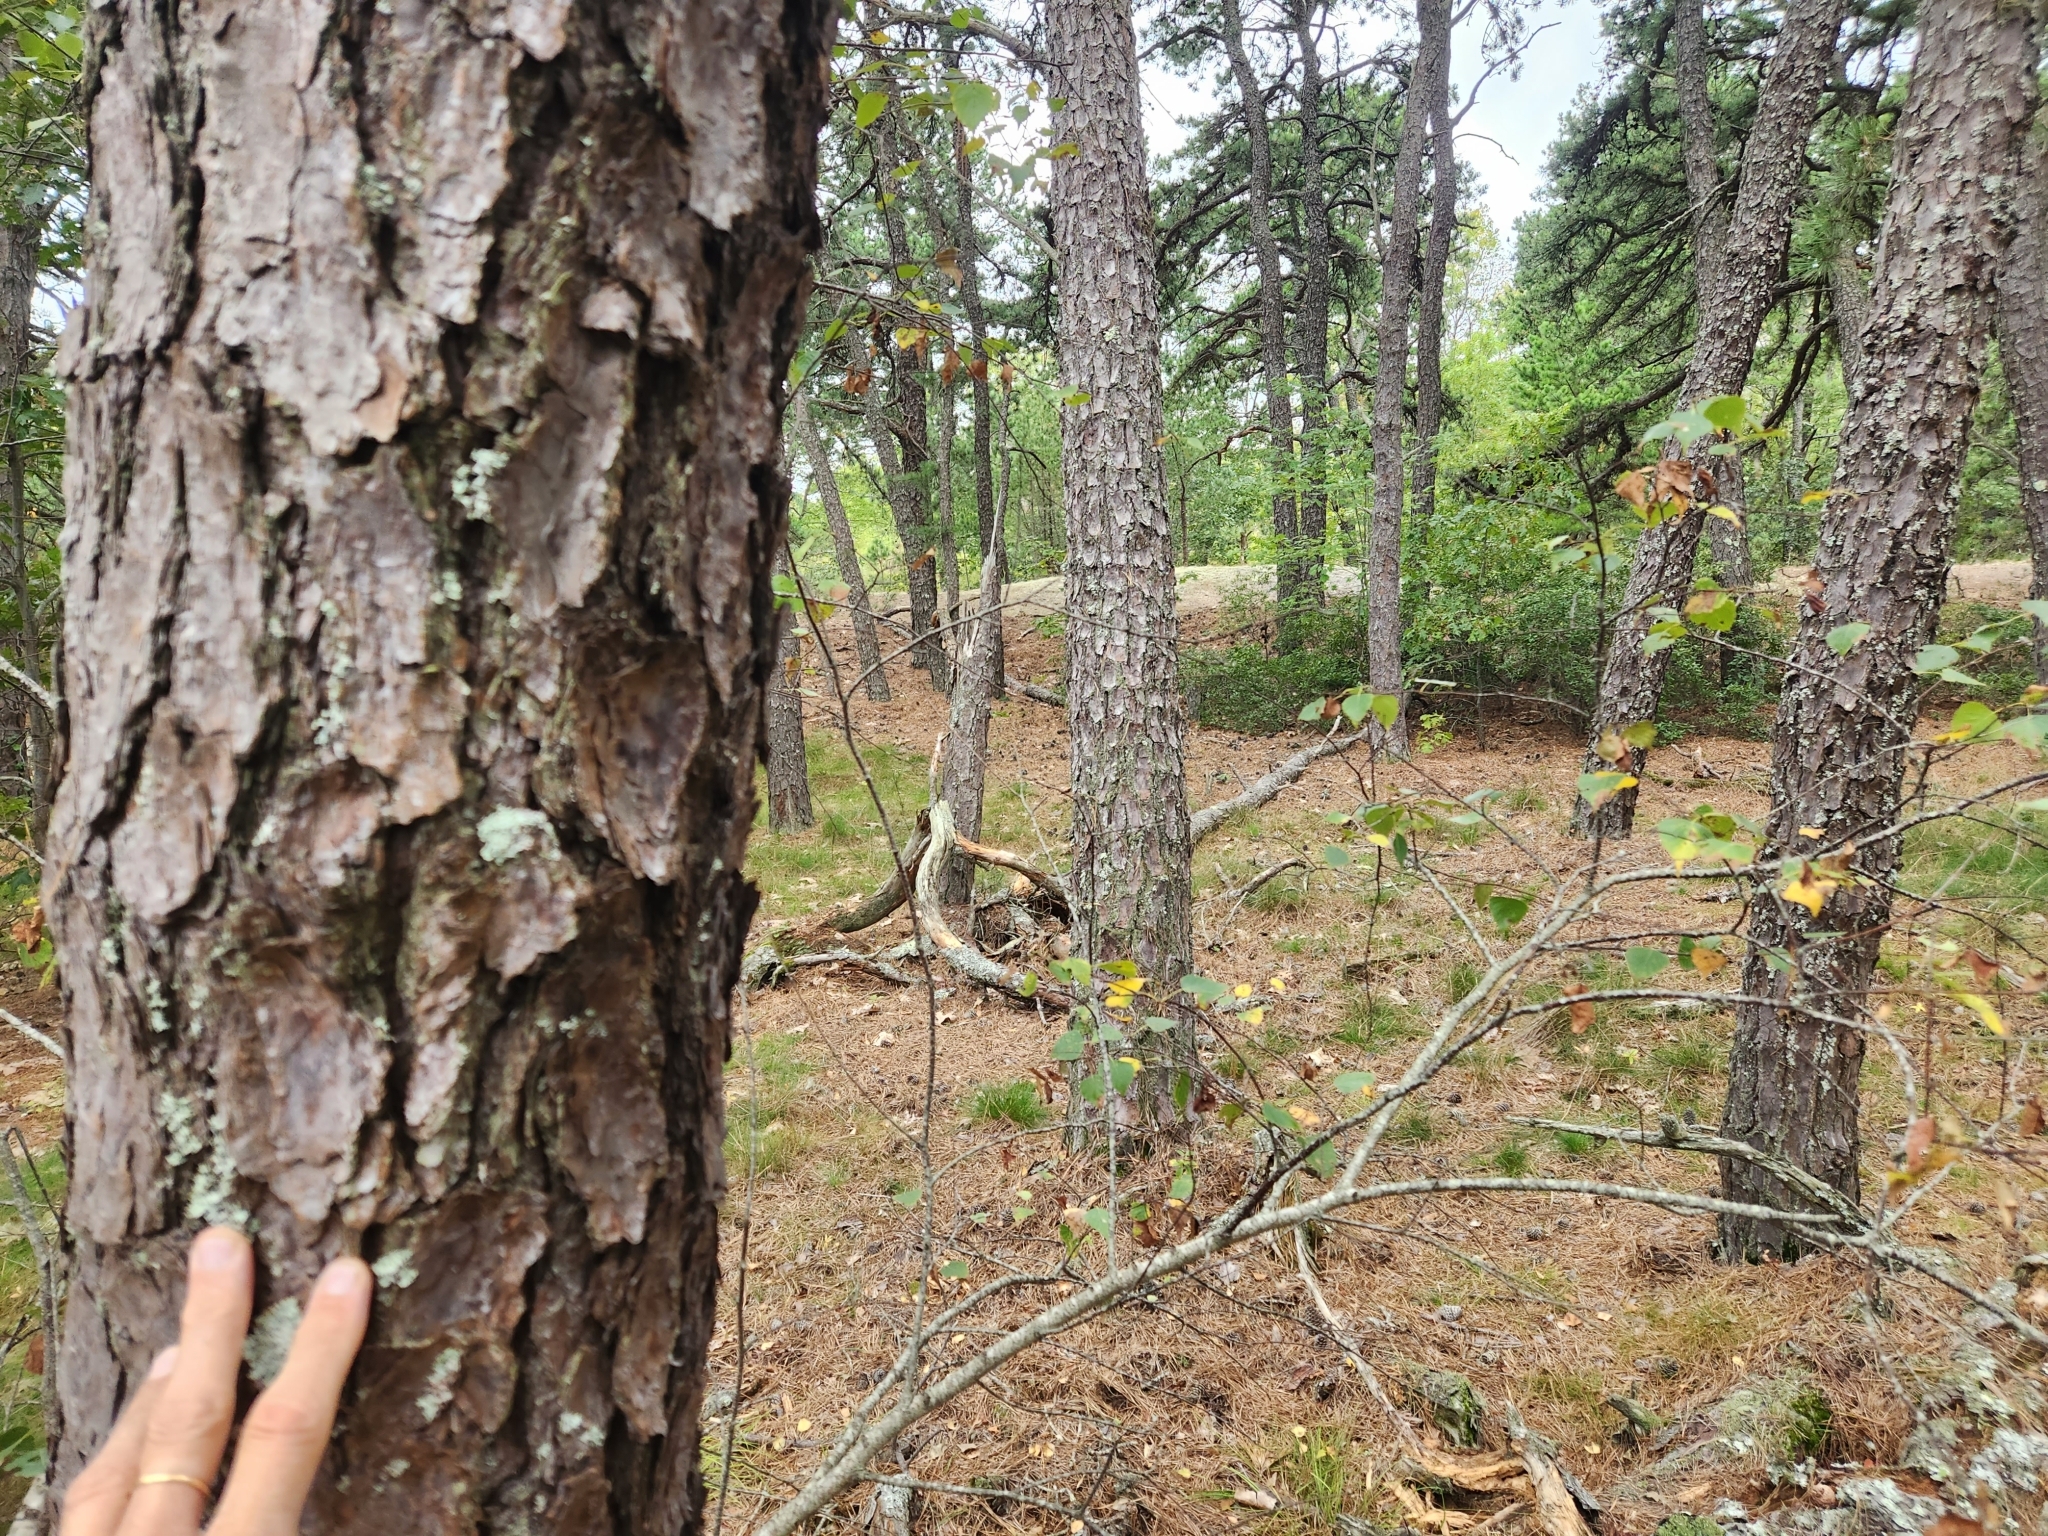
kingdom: Plantae
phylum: Tracheophyta
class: Pinopsida
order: Pinales
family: Pinaceae
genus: Pinus
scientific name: Pinus rigida
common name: Pitch pine
